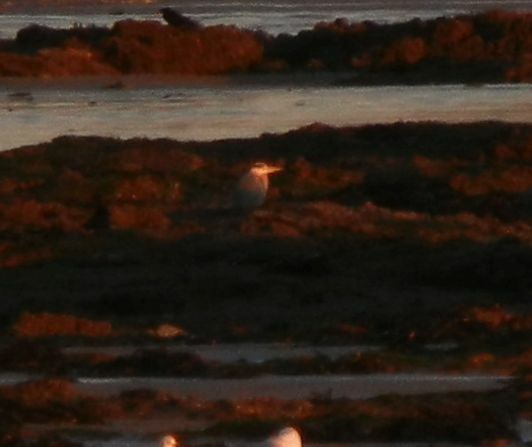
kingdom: Animalia
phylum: Chordata
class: Aves
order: Pelecaniformes
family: Ardeidae
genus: Ardea
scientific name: Ardea cinerea
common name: Grey heron
